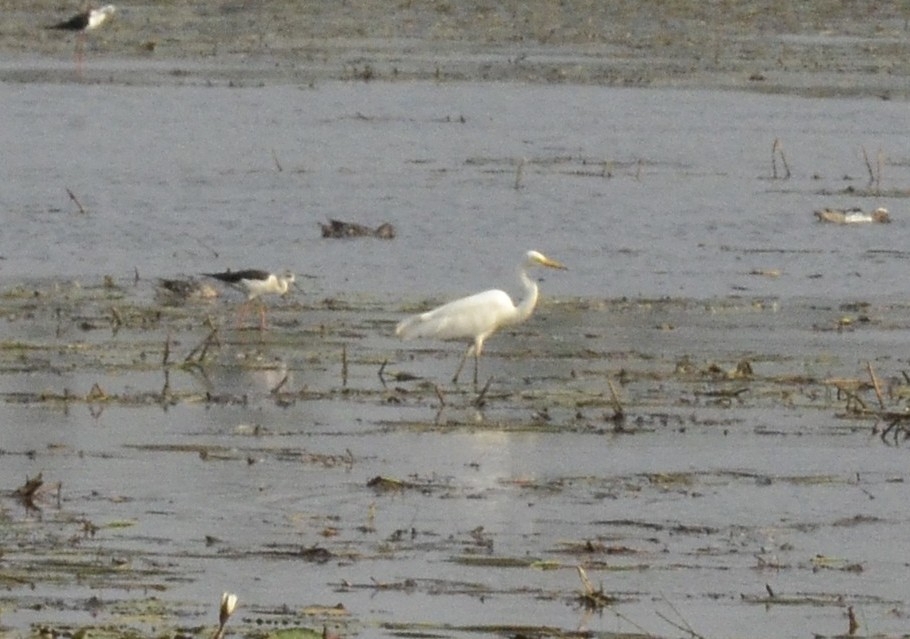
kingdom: Animalia
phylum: Chordata
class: Aves
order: Pelecaniformes
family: Ardeidae
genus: Egretta
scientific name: Egretta intermedia
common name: Intermediate egret
